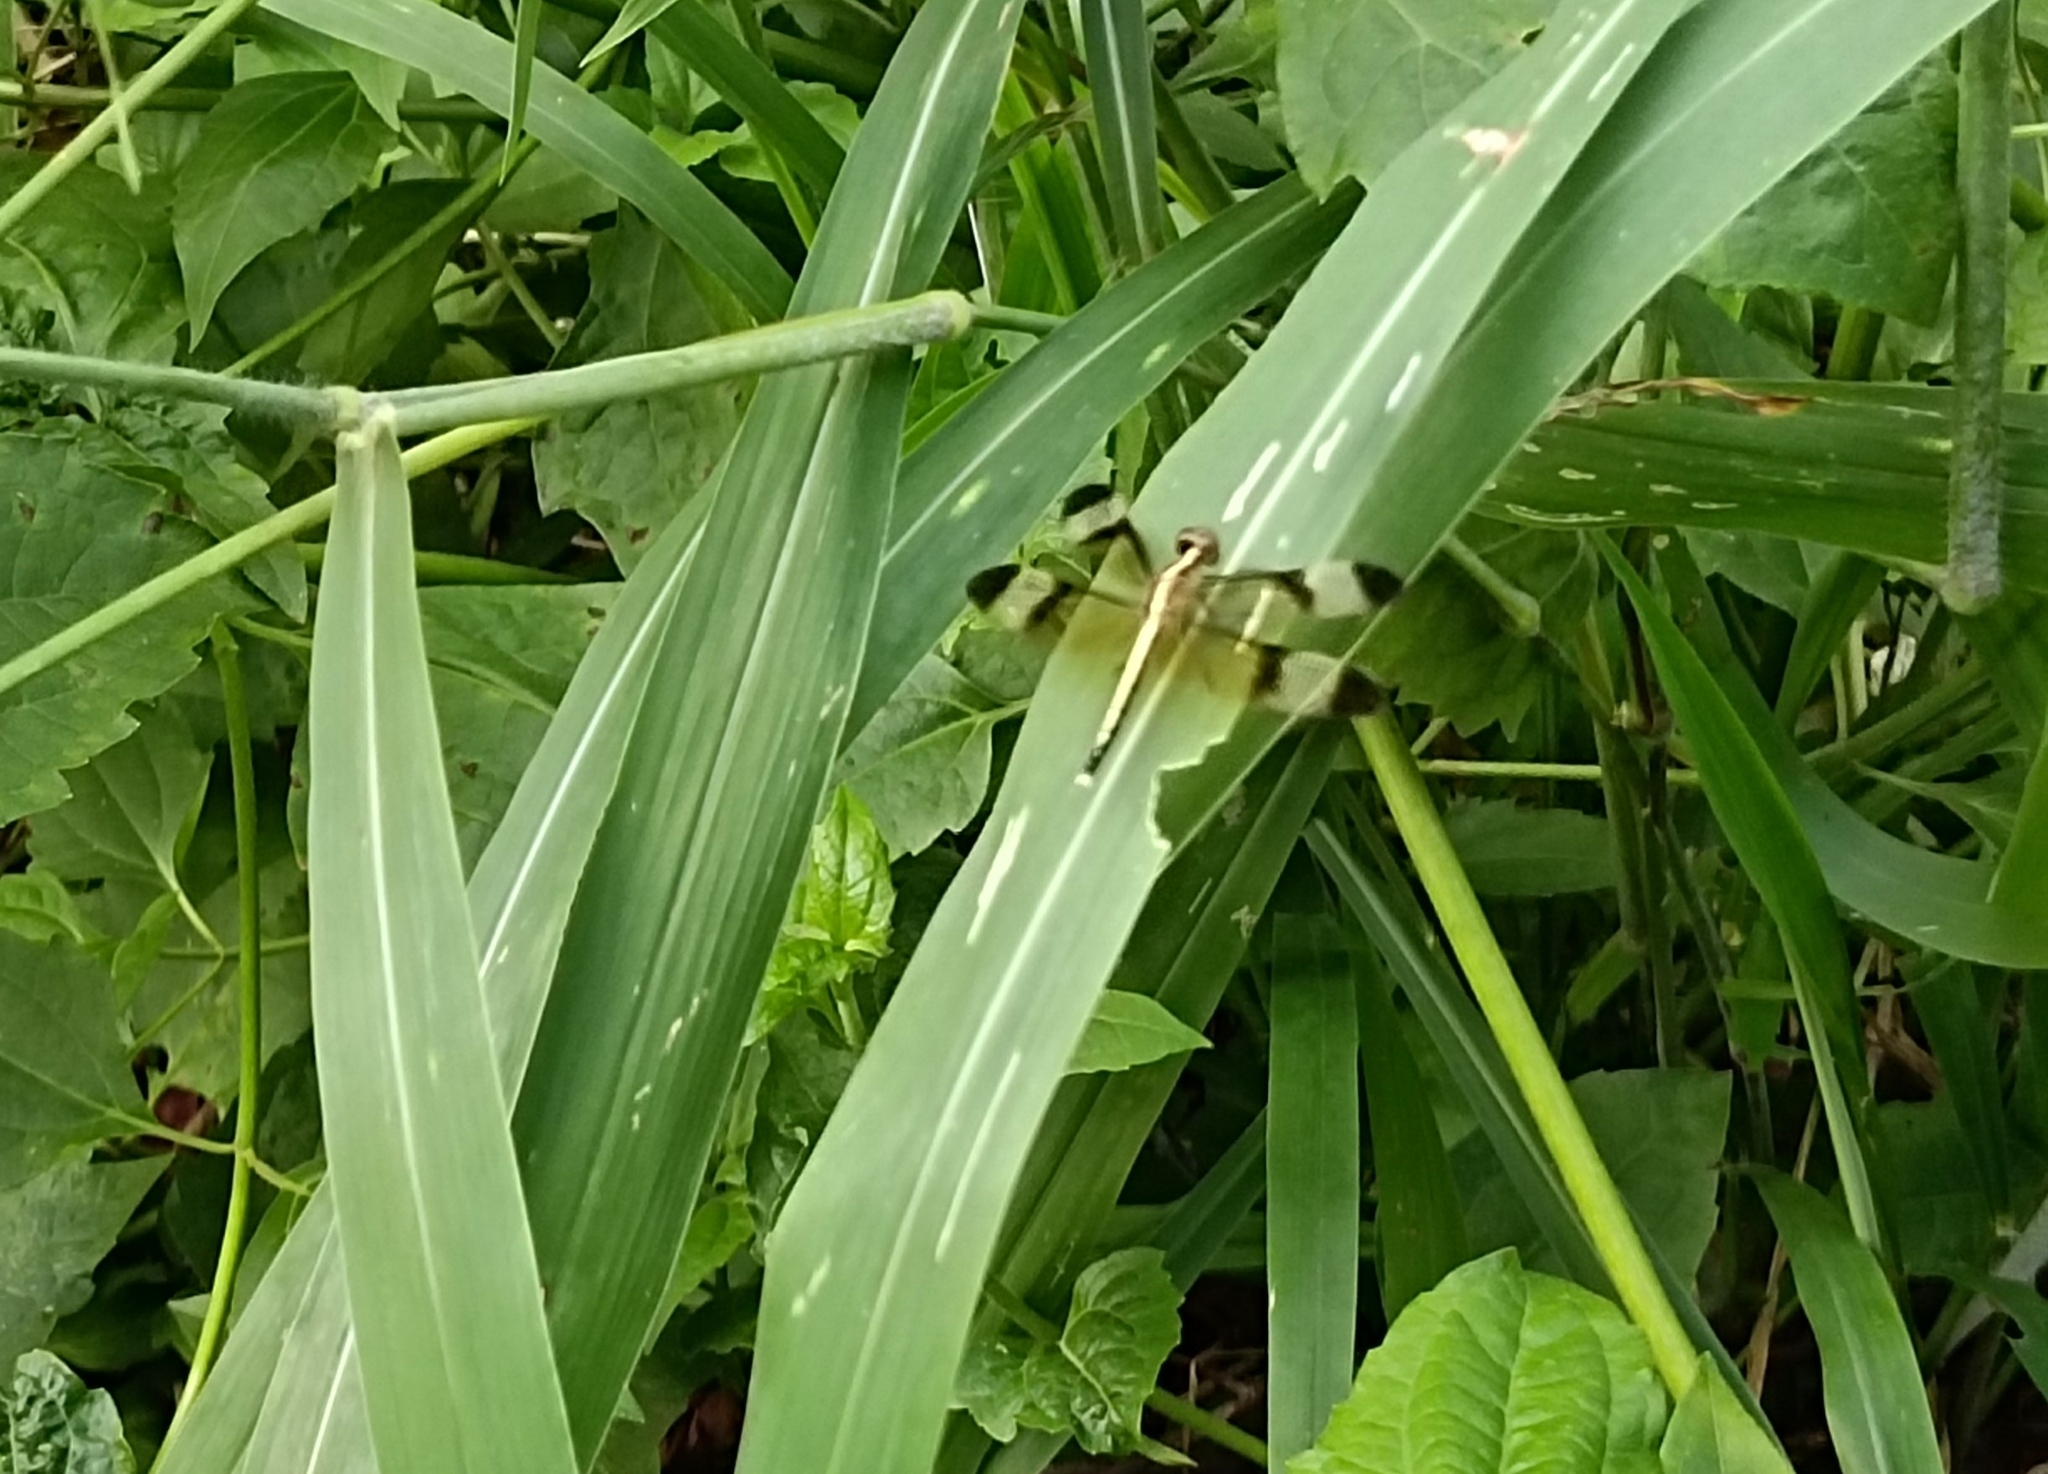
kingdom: Animalia
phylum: Arthropoda
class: Insecta
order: Odonata
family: Libellulidae
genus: Neurothemis
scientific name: Neurothemis tullia
